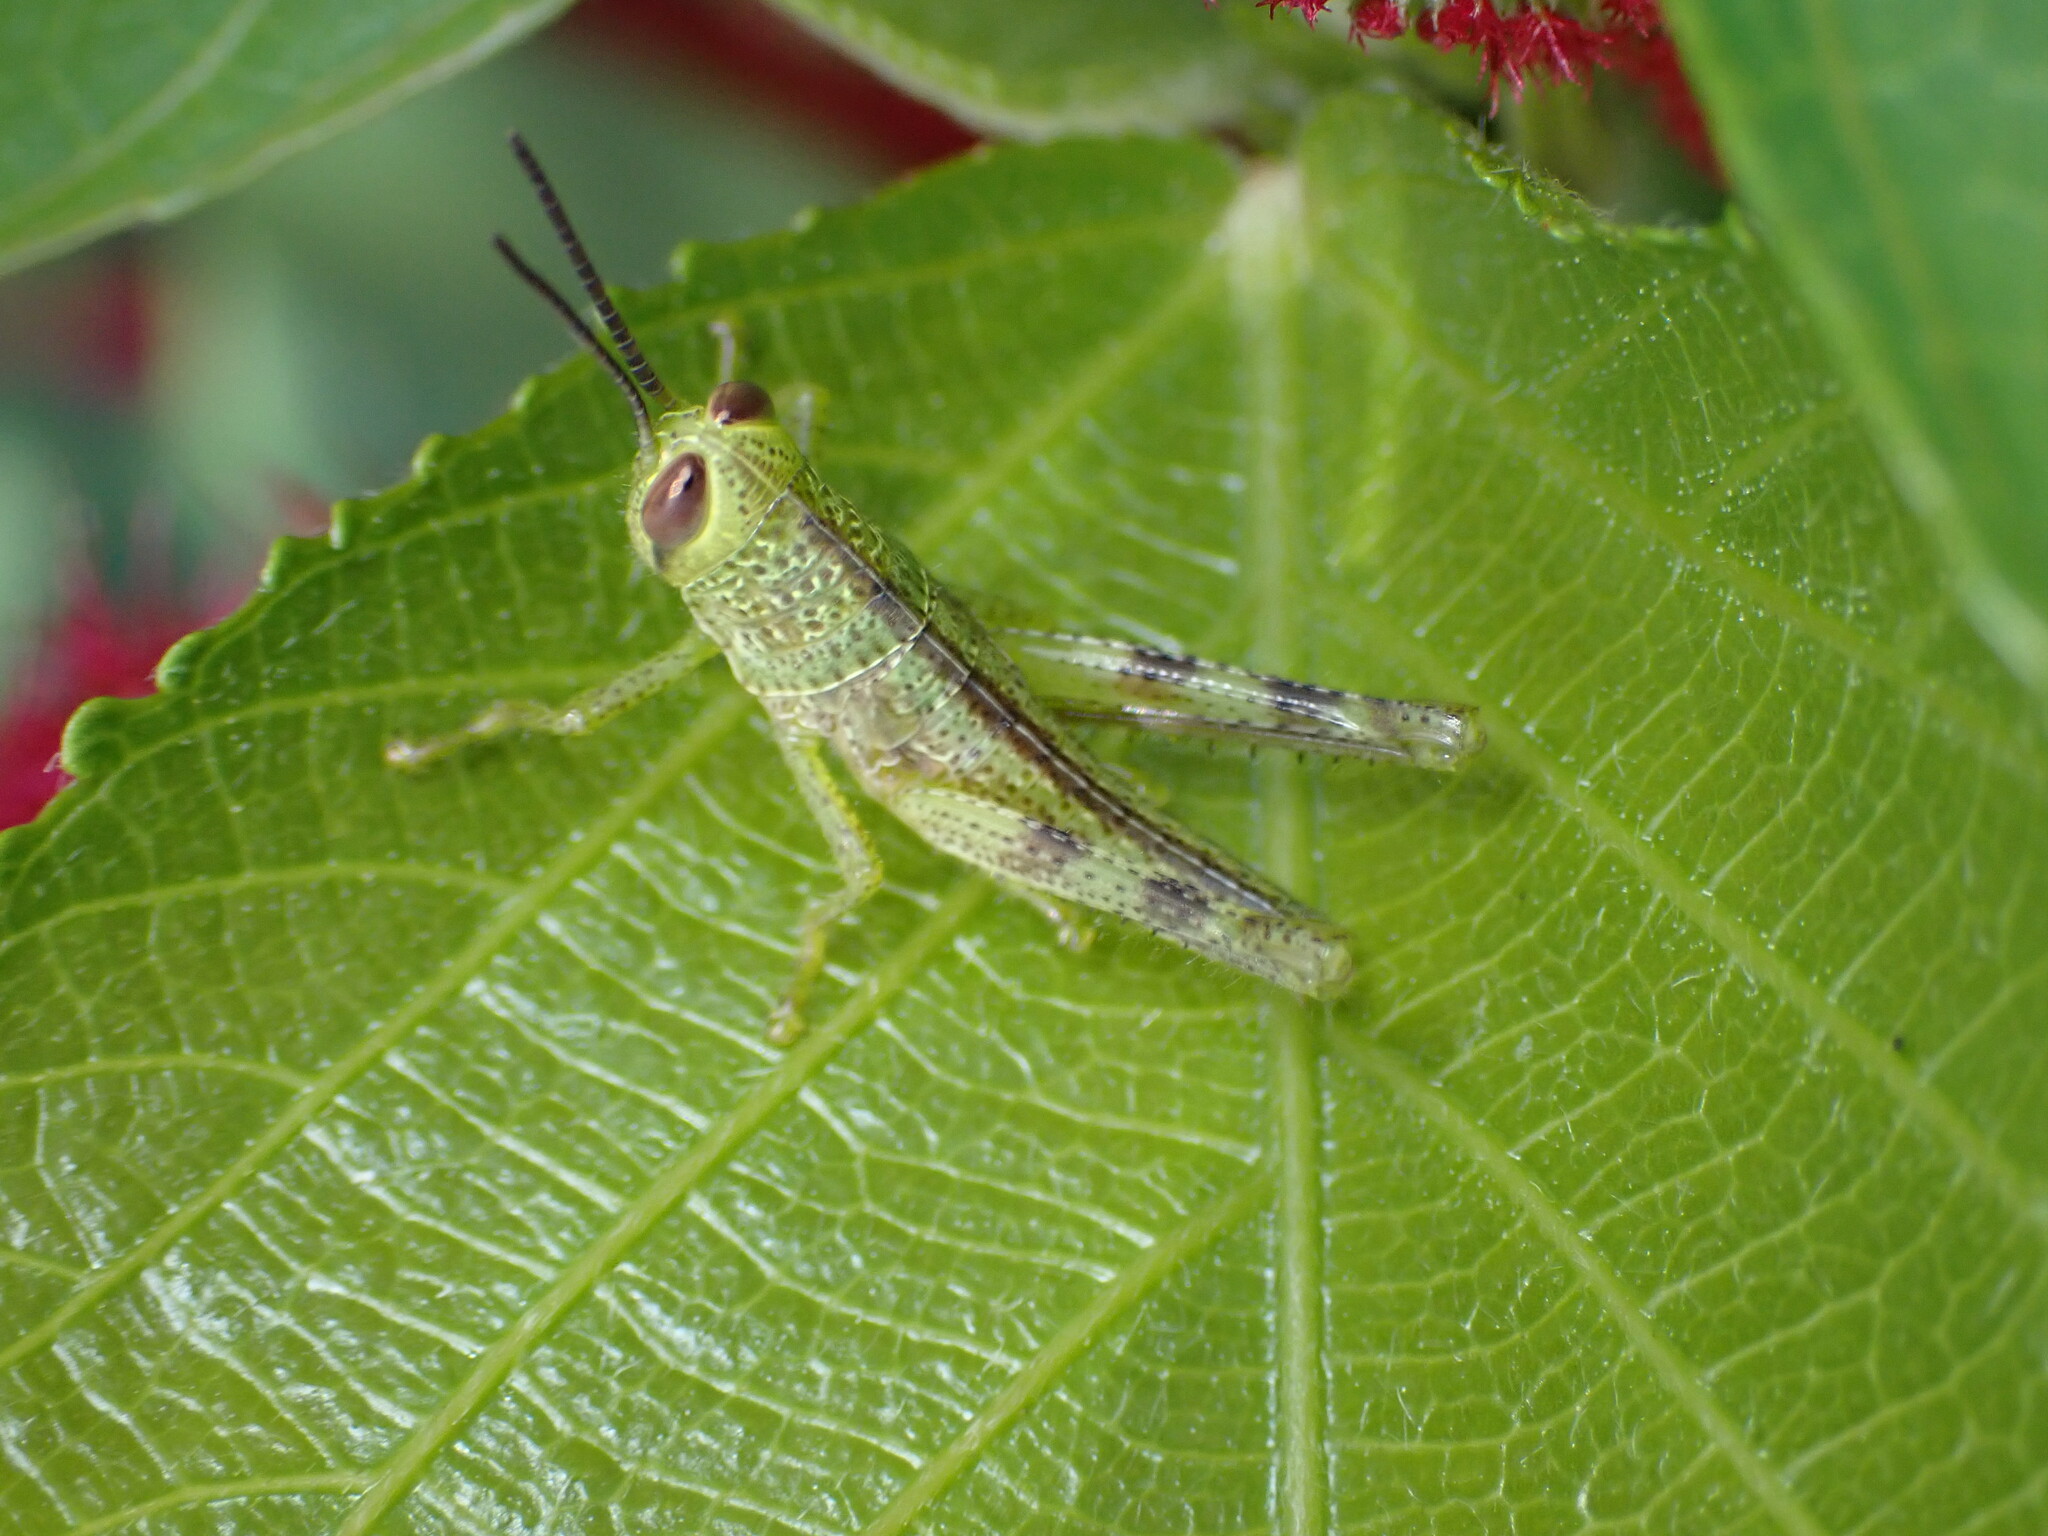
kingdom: Animalia
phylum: Arthropoda
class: Insecta
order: Orthoptera
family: Acrididae
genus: Valanga
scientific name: Valanga nigricornis
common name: Javanese bird grasshopper
